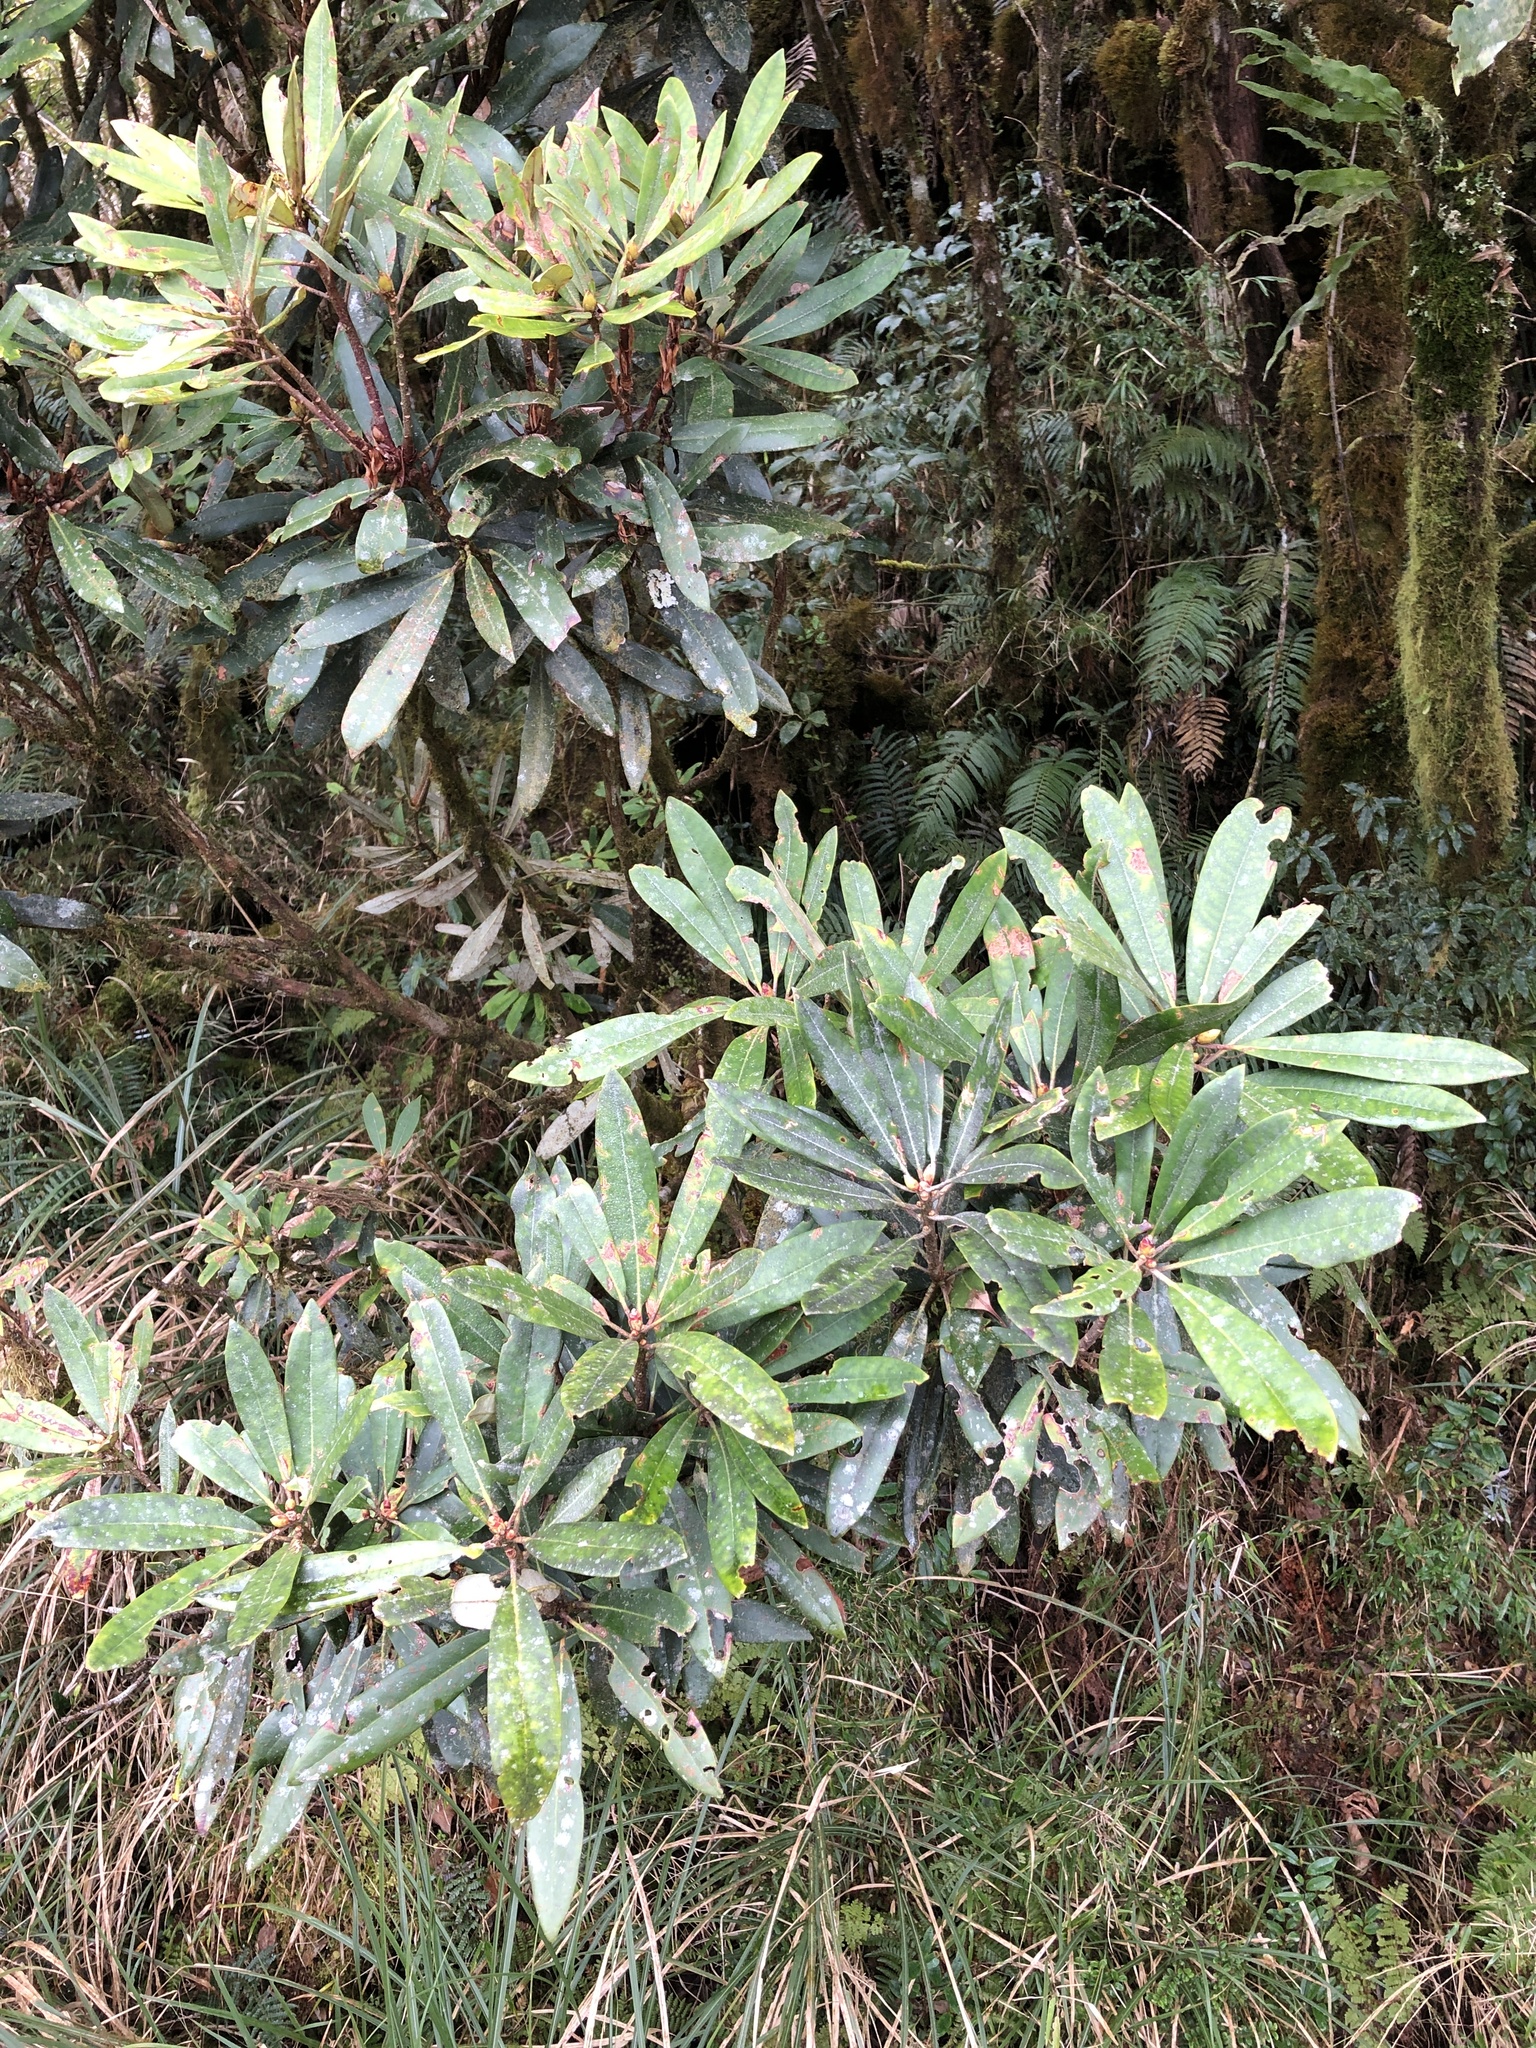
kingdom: Plantae
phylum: Tracheophyta
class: Magnoliopsida
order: Ericales
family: Ericaceae
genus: Rhododendron
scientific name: Rhododendron formosanum
